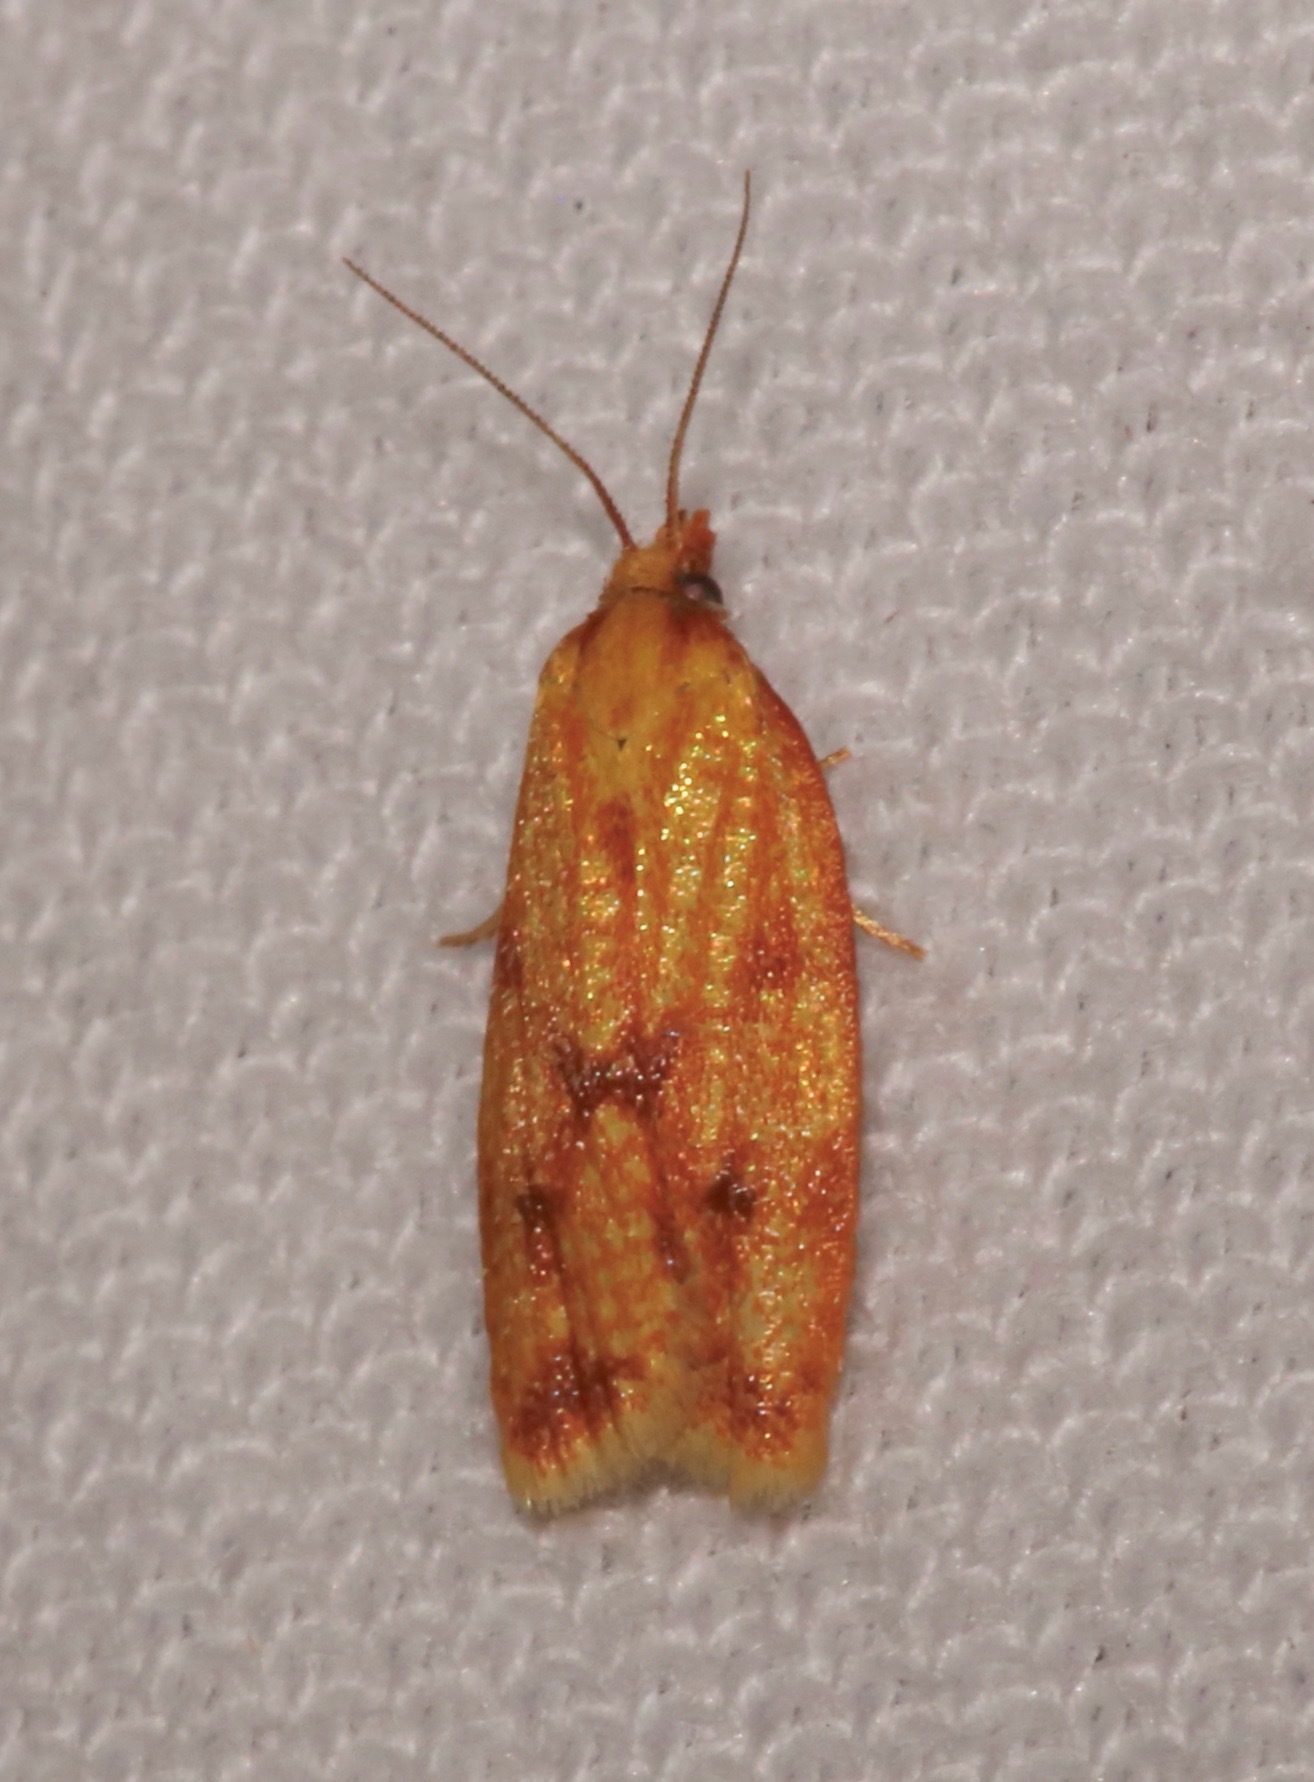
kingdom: Animalia
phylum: Arthropoda
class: Insecta
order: Lepidoptera
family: Tortricidae
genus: Sparganothis
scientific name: Sparganothis sulfureana
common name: Sparganothis fruitworm moth
